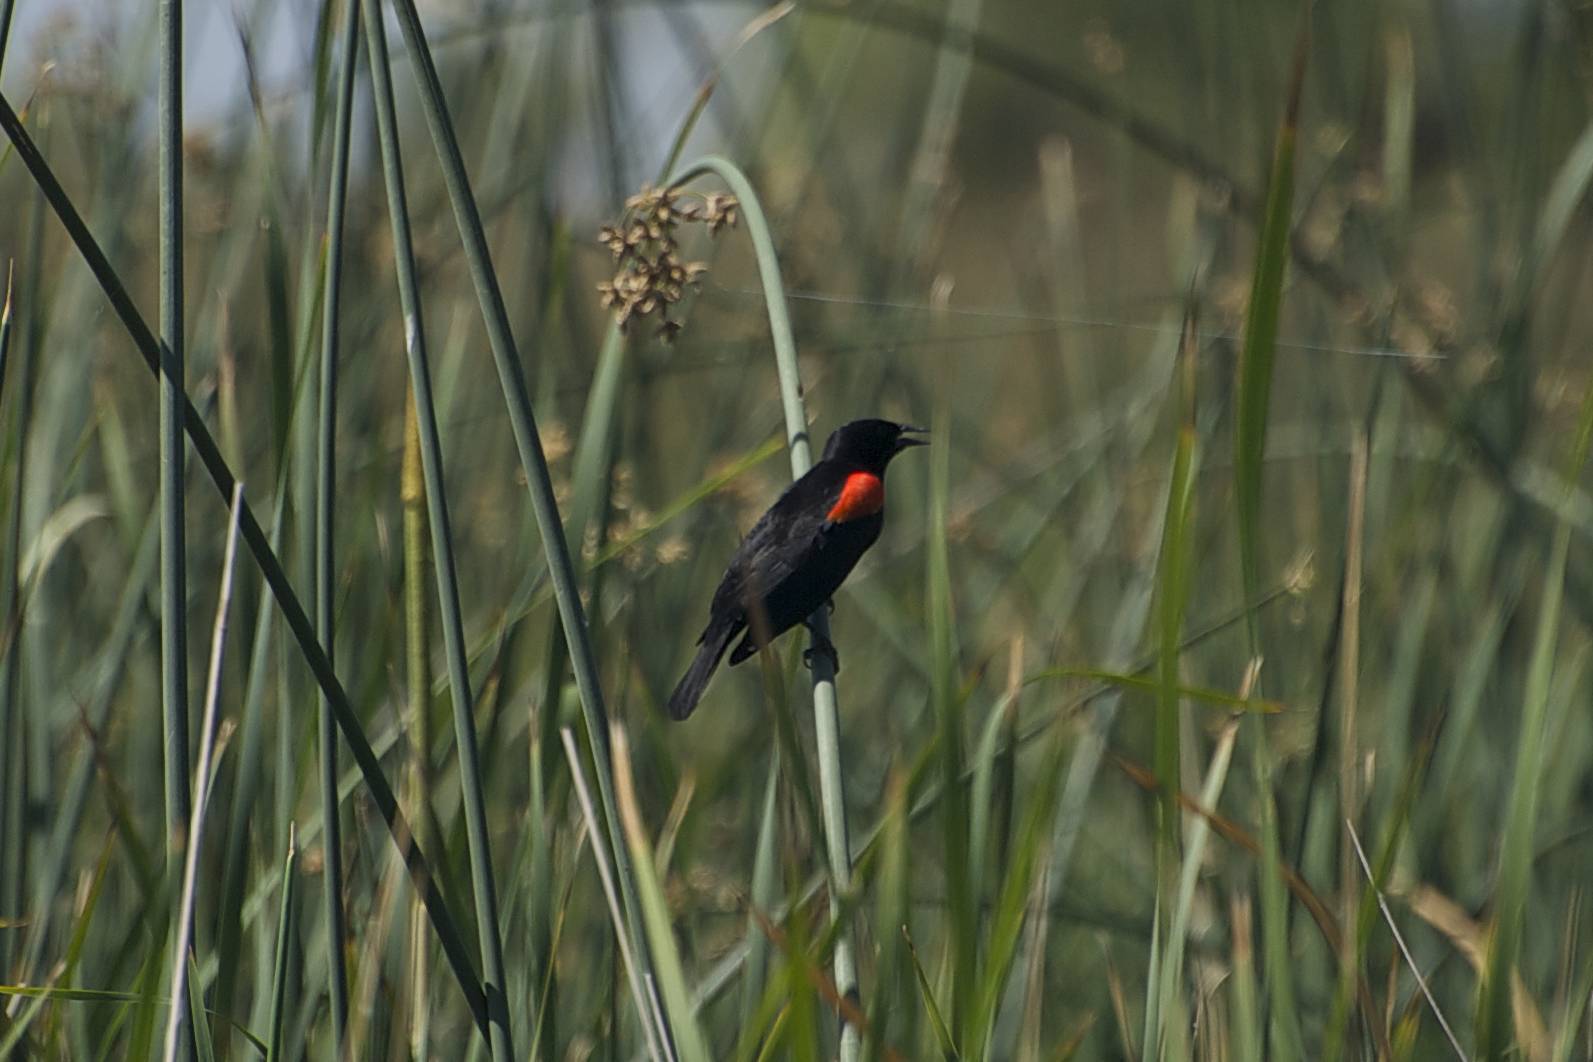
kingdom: Animalia
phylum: Chordata
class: Aves
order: Passeriformes
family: Icteridae
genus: Agelaius
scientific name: Agelaius phoeniceus
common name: Red-winged blackbird
